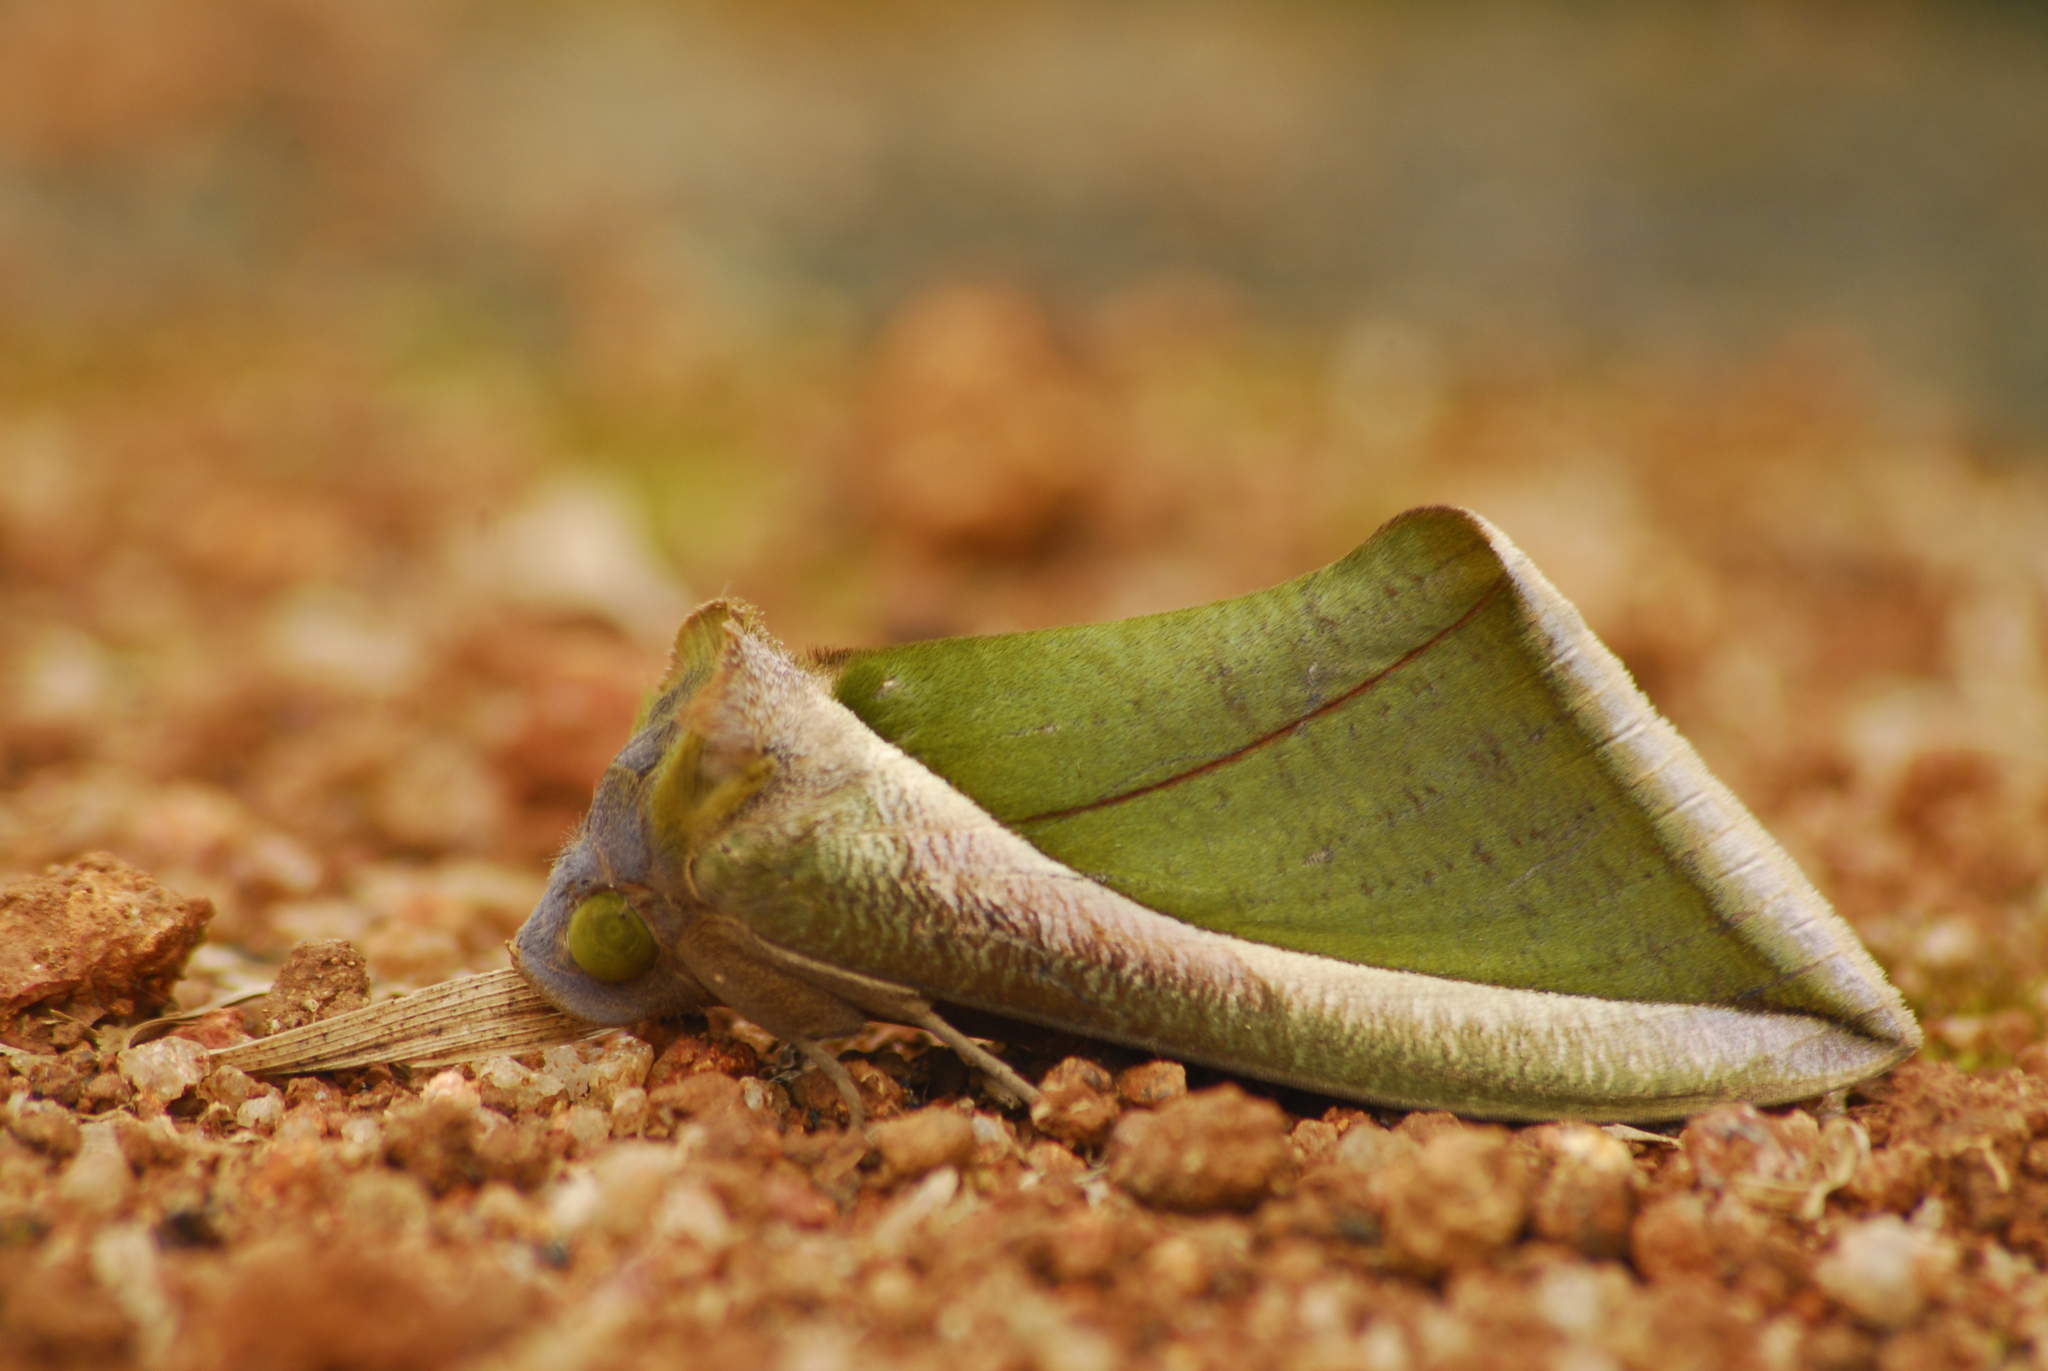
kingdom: Animalia
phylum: Arthropoda
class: Insecta
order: Lepidoptera
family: Erebidae
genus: Eudocima
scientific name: Eudocima salaminia
